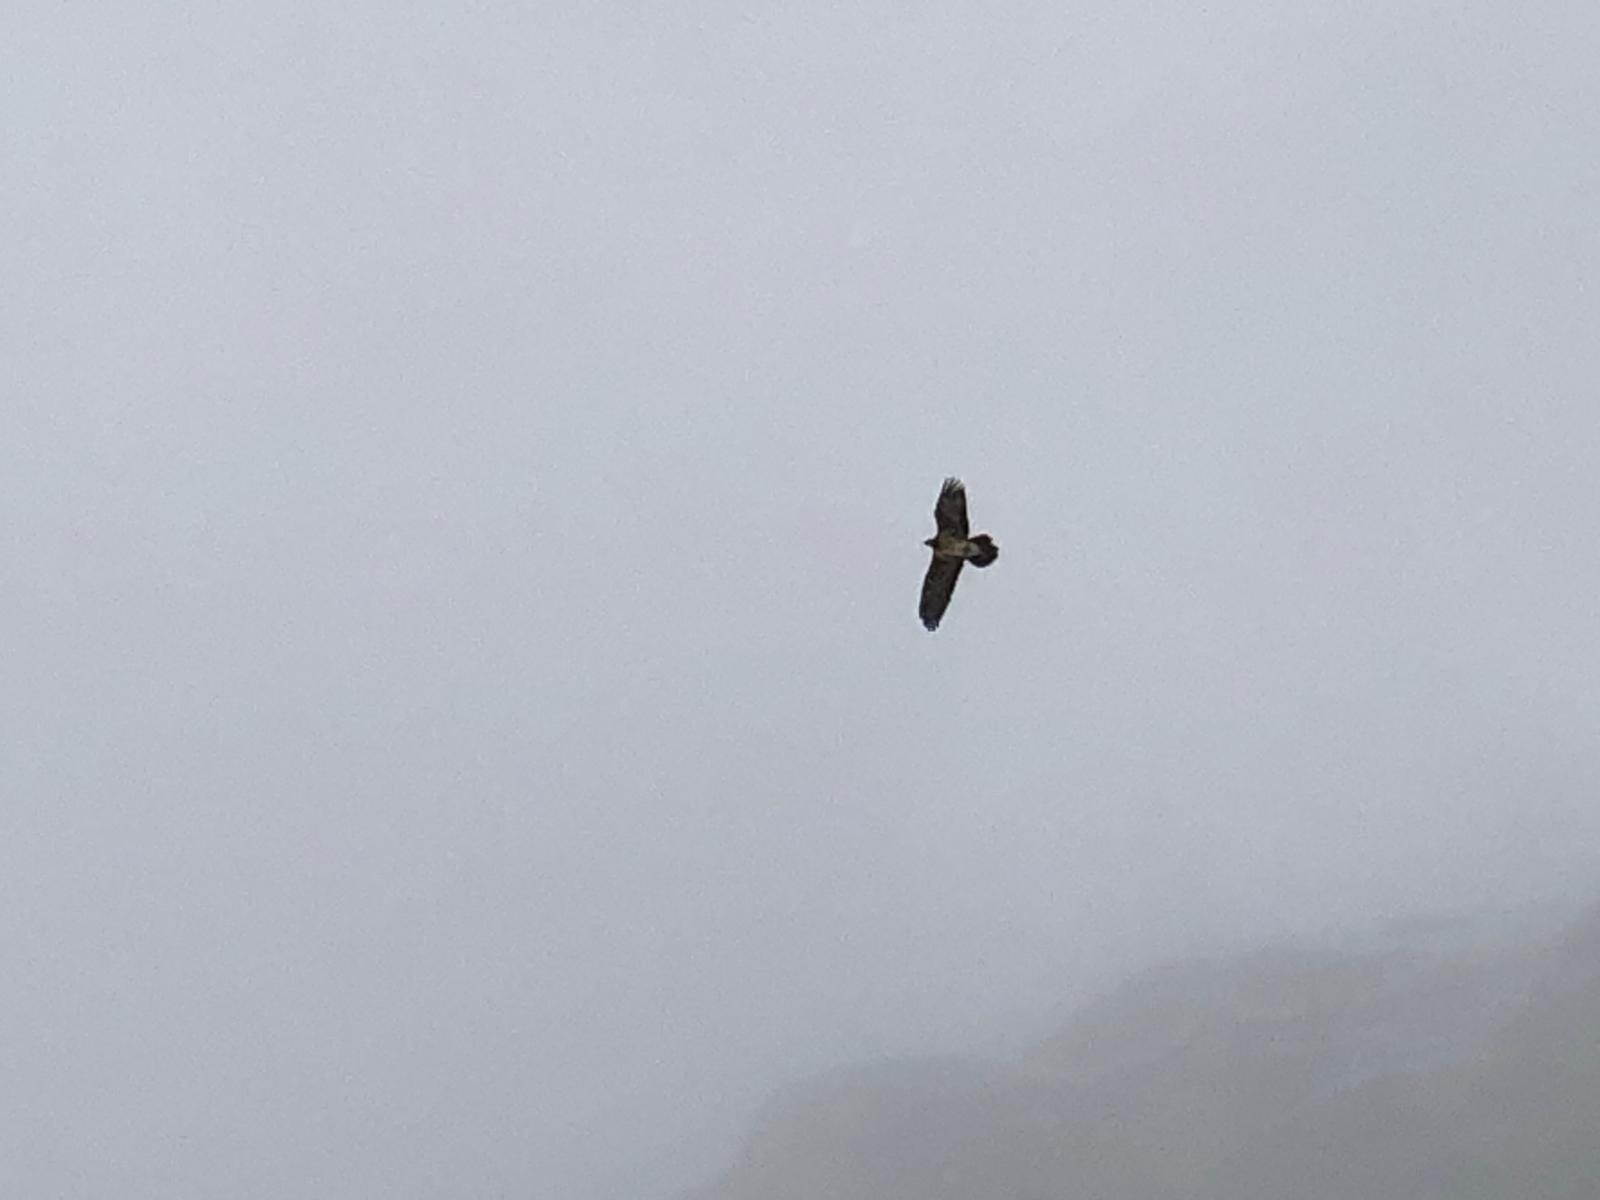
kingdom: Animalia
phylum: Chordata
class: Aves
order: Accipitriformes
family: Accipitridae
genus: Gypaetus
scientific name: Gypaetus barbatus
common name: Bearded vulture
